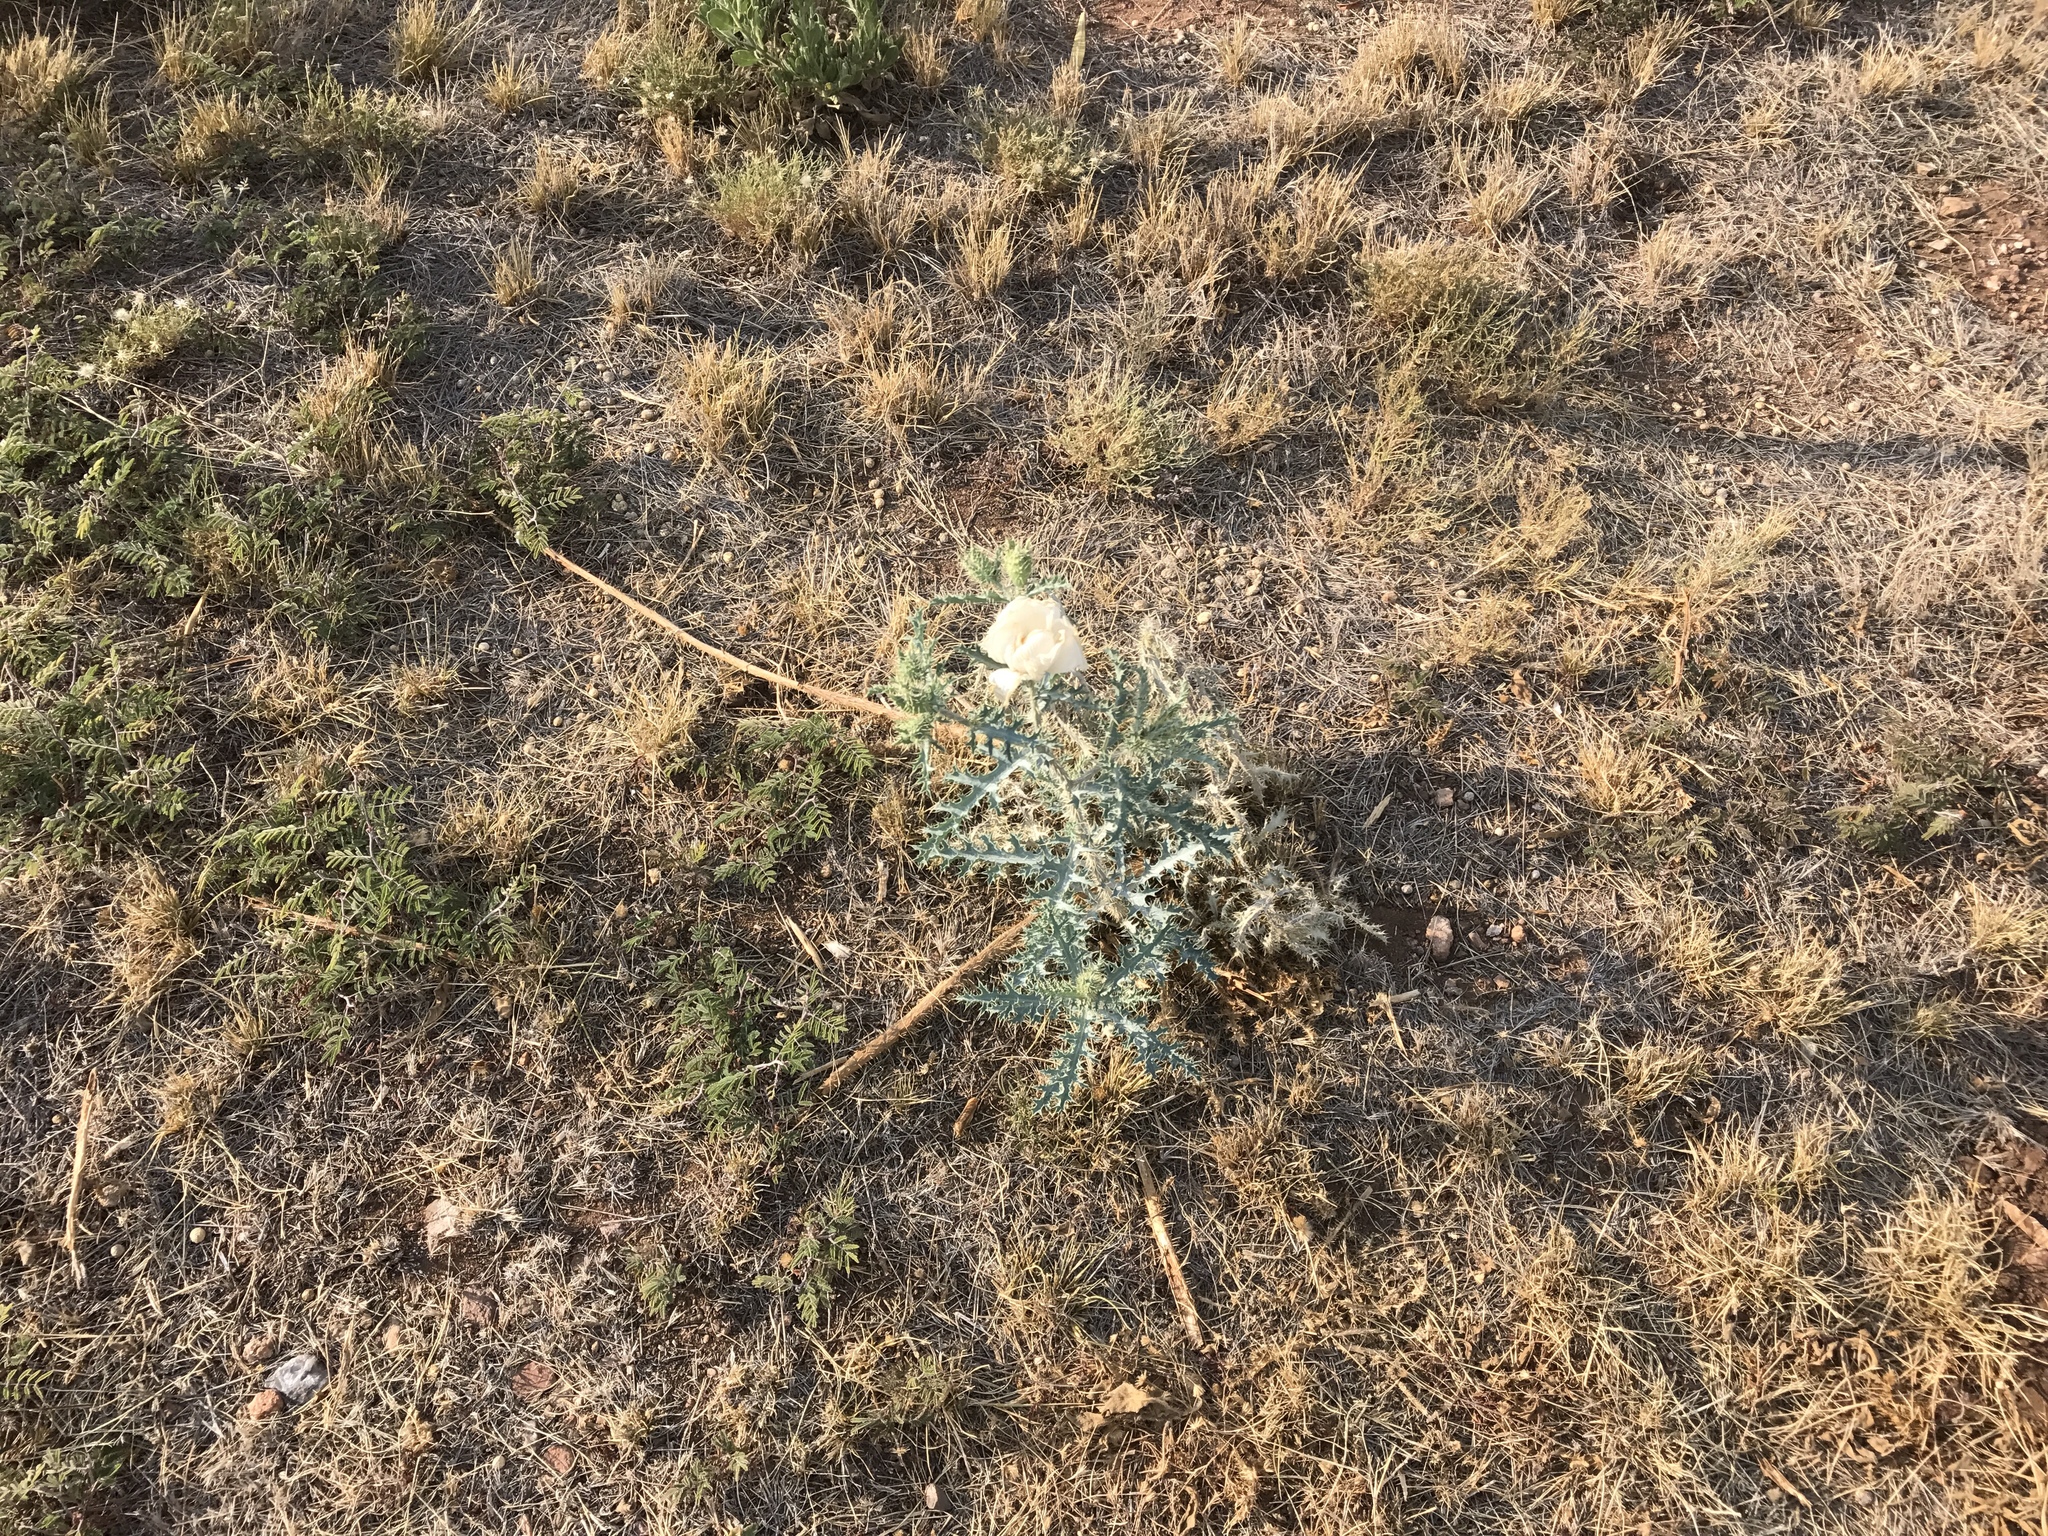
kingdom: Plantae
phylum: Tracheophyta
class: Magnoliopsida
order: Ranunculales
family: Papaveraceae
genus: Argemone
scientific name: Argemone pleiacantha
